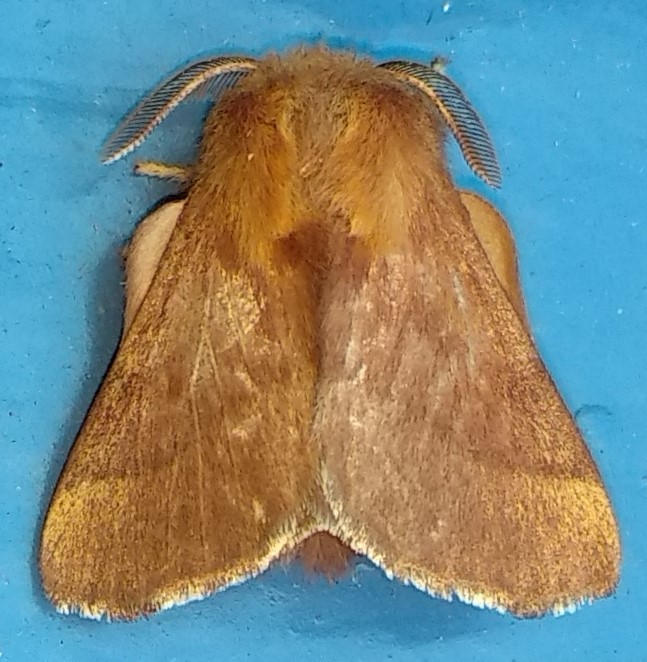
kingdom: Animalia
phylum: Arthropoda
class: Insecta
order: Lepidoptera
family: Lasiocampidae
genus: Malacosoma
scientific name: Malacosoma disstria
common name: Forest tent caterpillar
